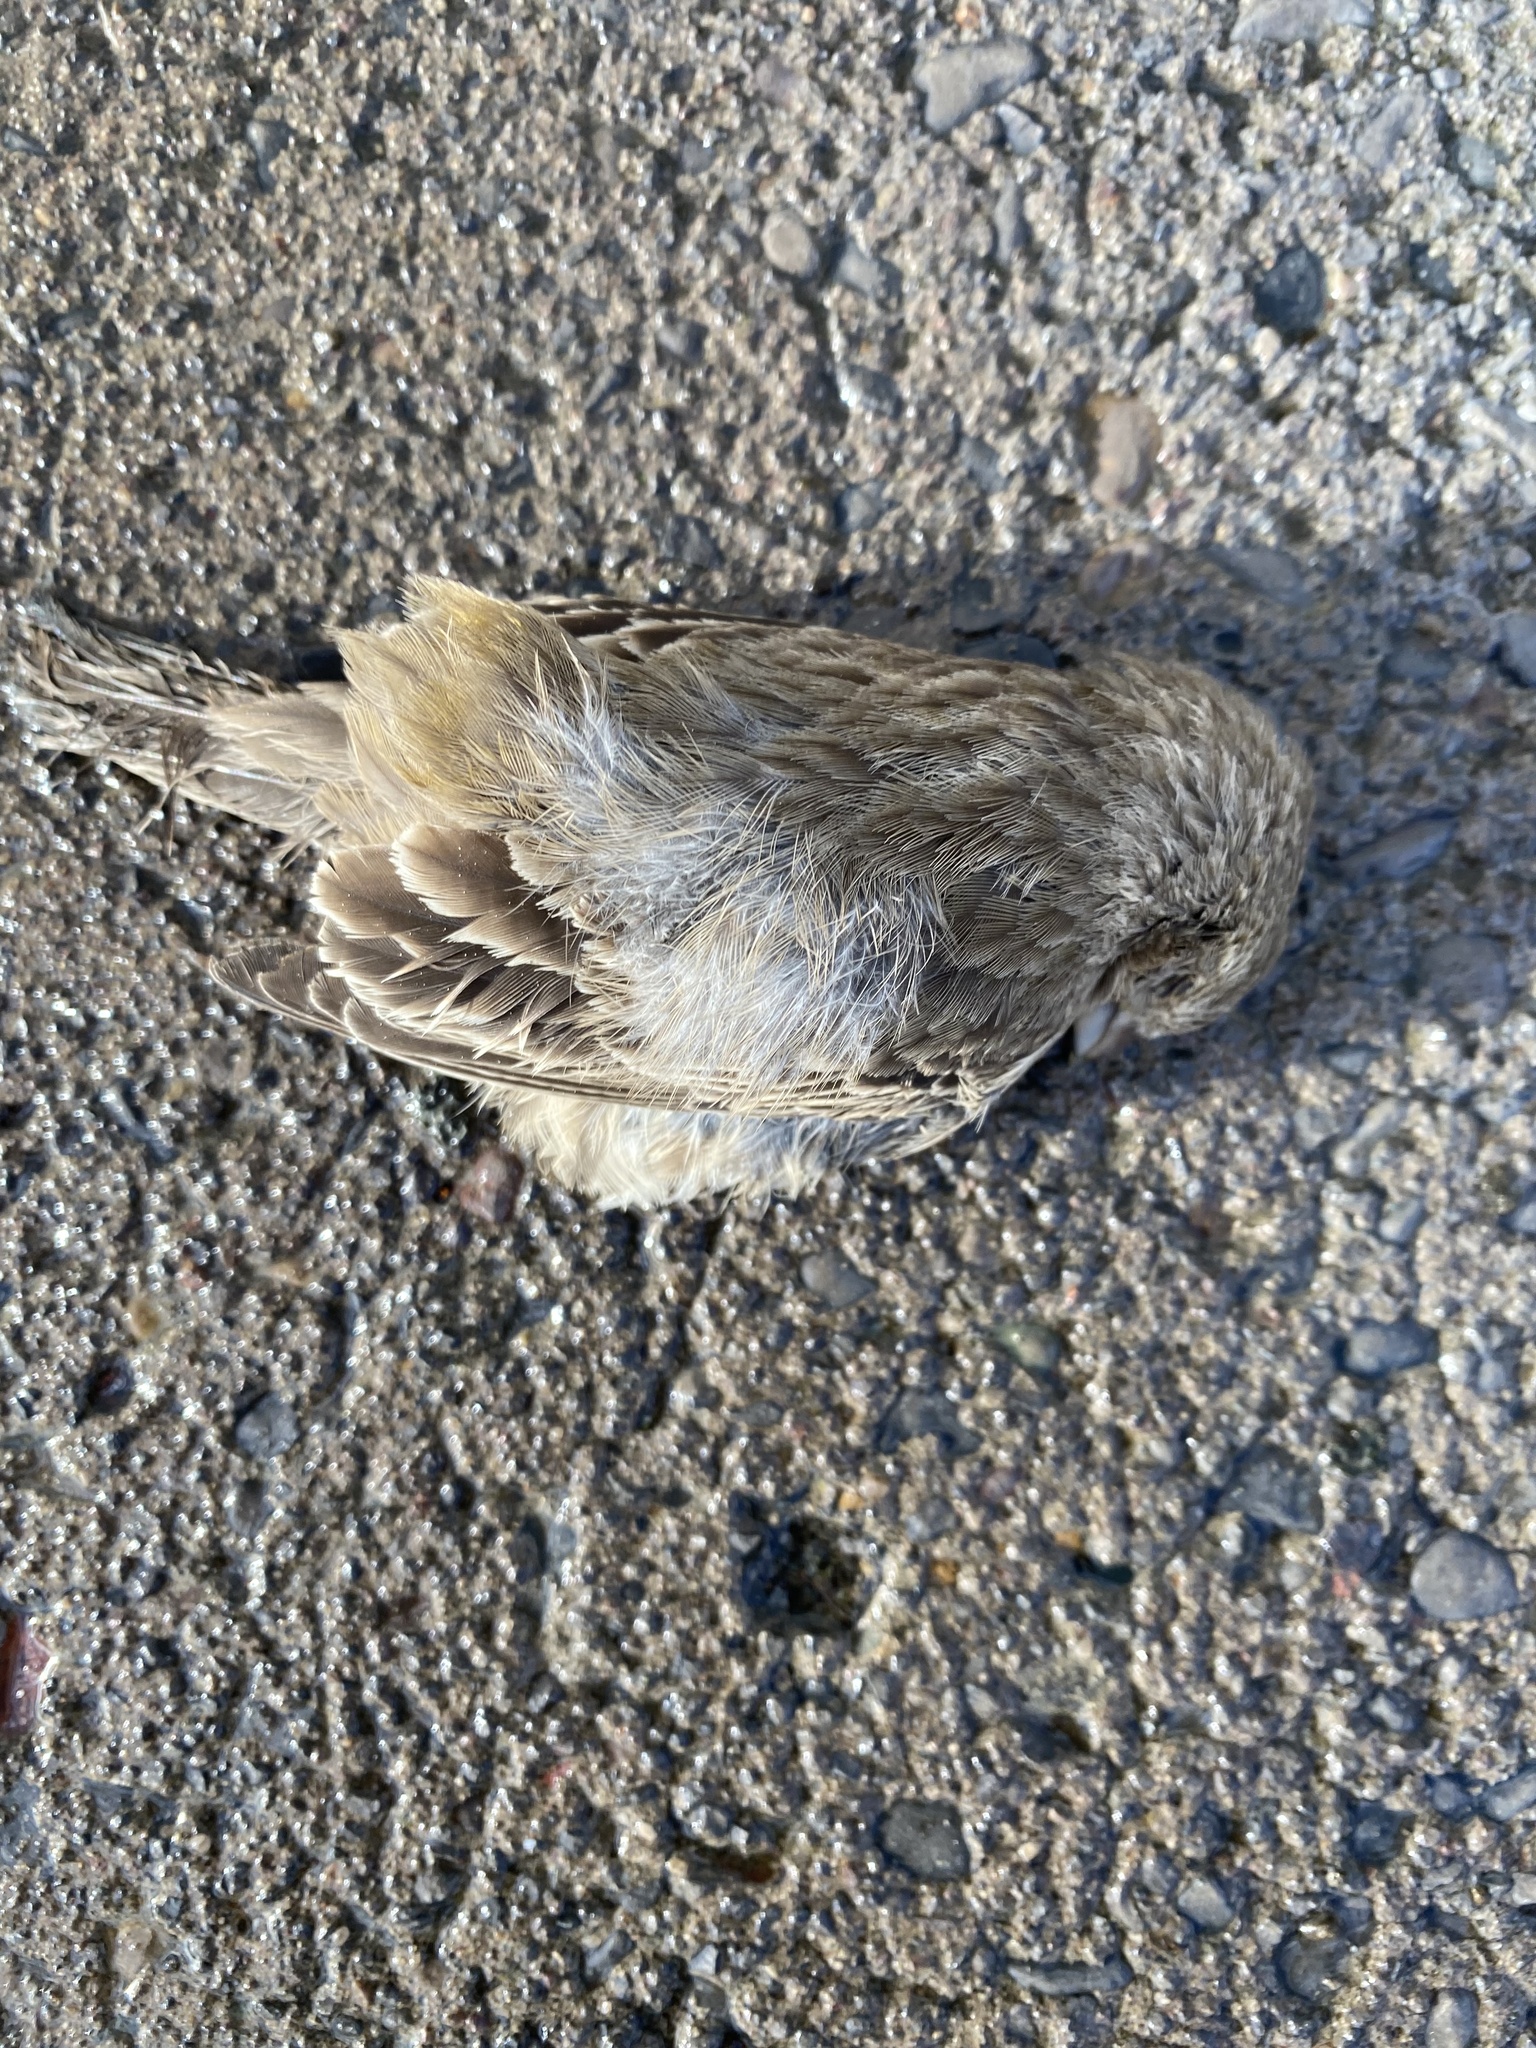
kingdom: Animalia
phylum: Chordata
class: Aves
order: Passeriformes
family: Fringillidae
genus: Haemorhous
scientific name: Haemorhous mexicanus
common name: House finch
